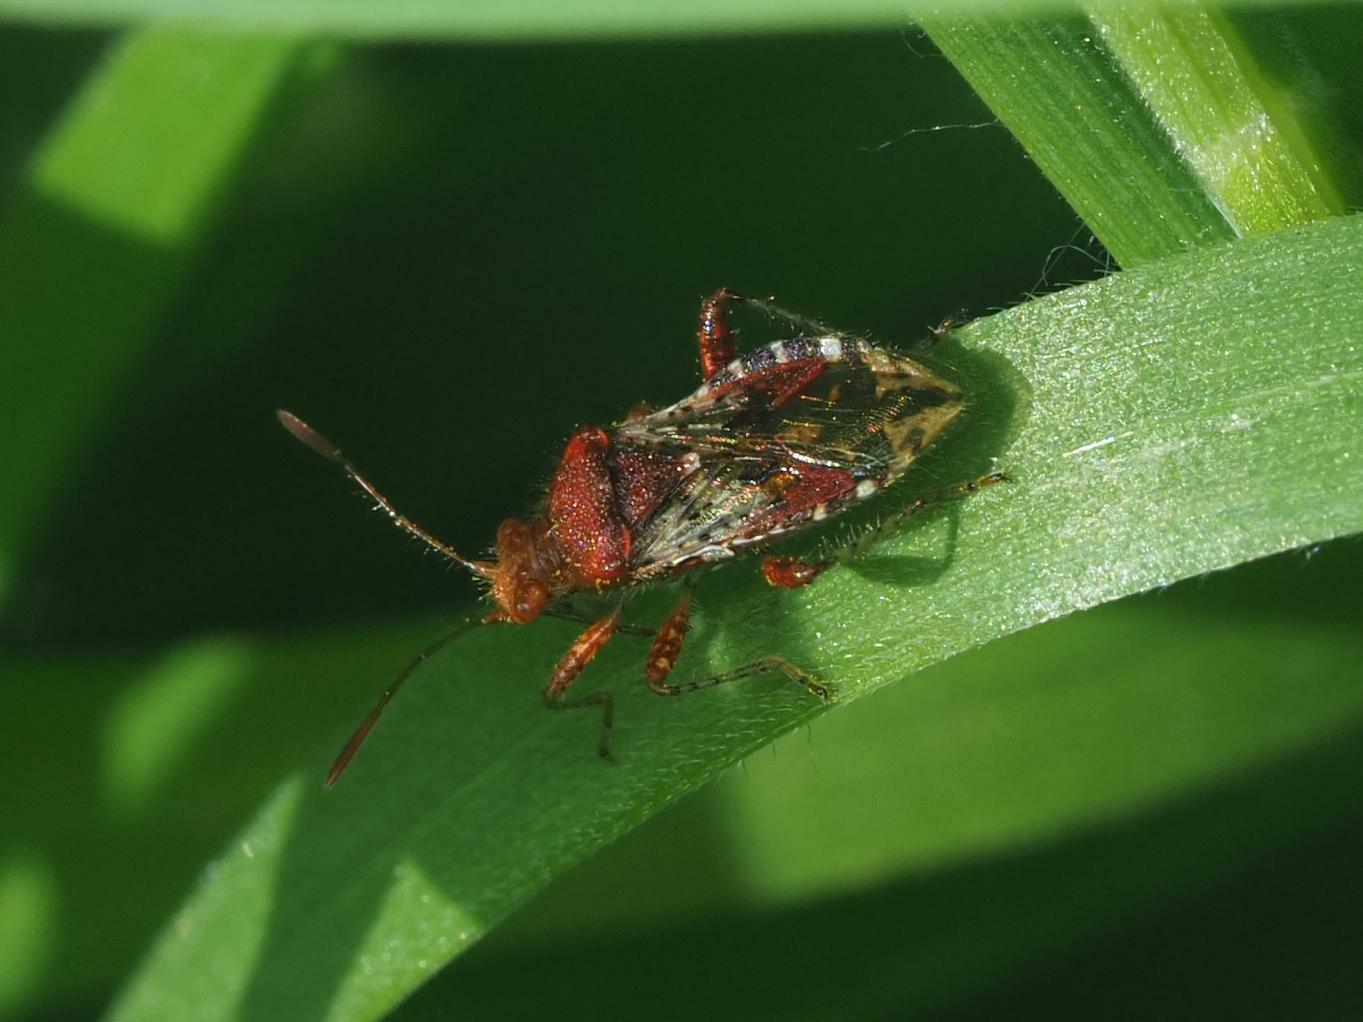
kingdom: Animalia
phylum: Arthropoda
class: Insecta
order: Hemiptera
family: Rhopalidae
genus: Rhopalus
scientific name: Rhopalus subrufus
